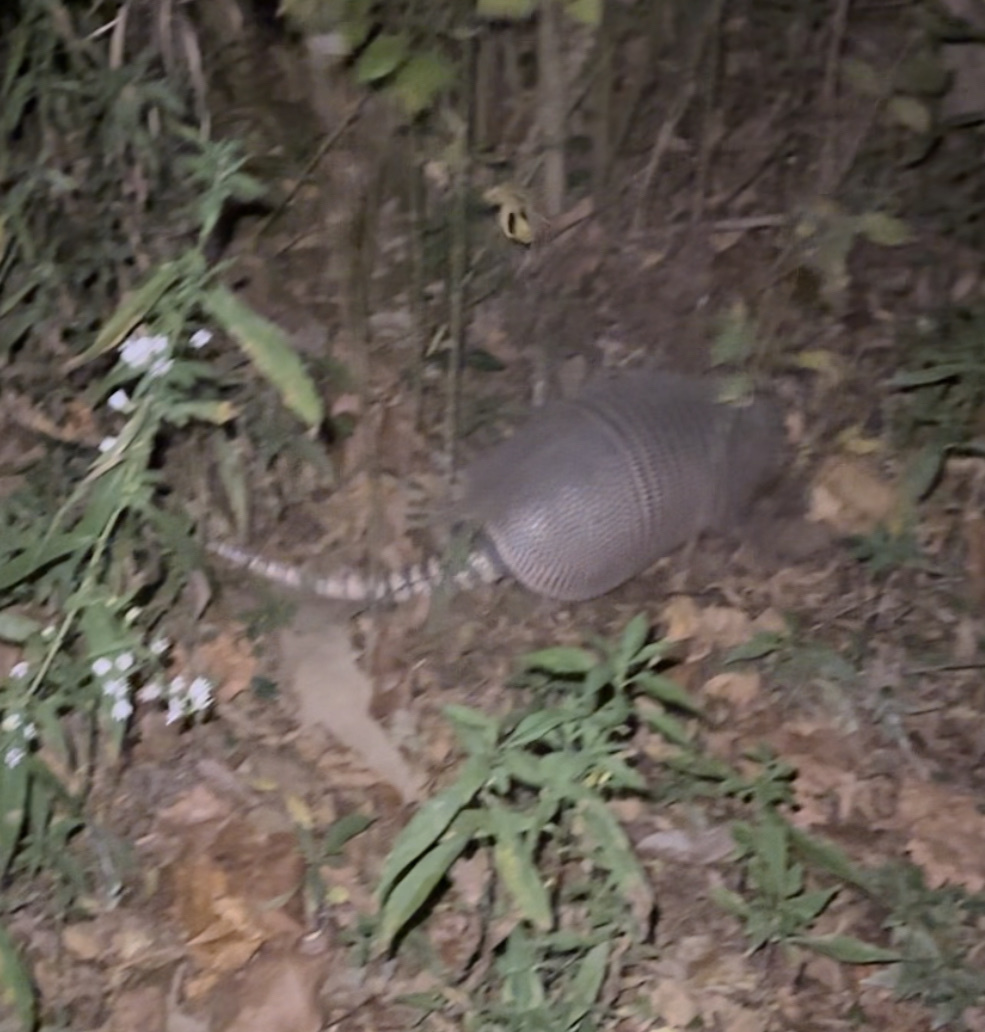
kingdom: Animalia
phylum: Chordata
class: Mammalia
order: Cingulata
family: Dasypodidae
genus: Dasypus
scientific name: Dasypus novemcinctus
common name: Nine-banded armadillo
